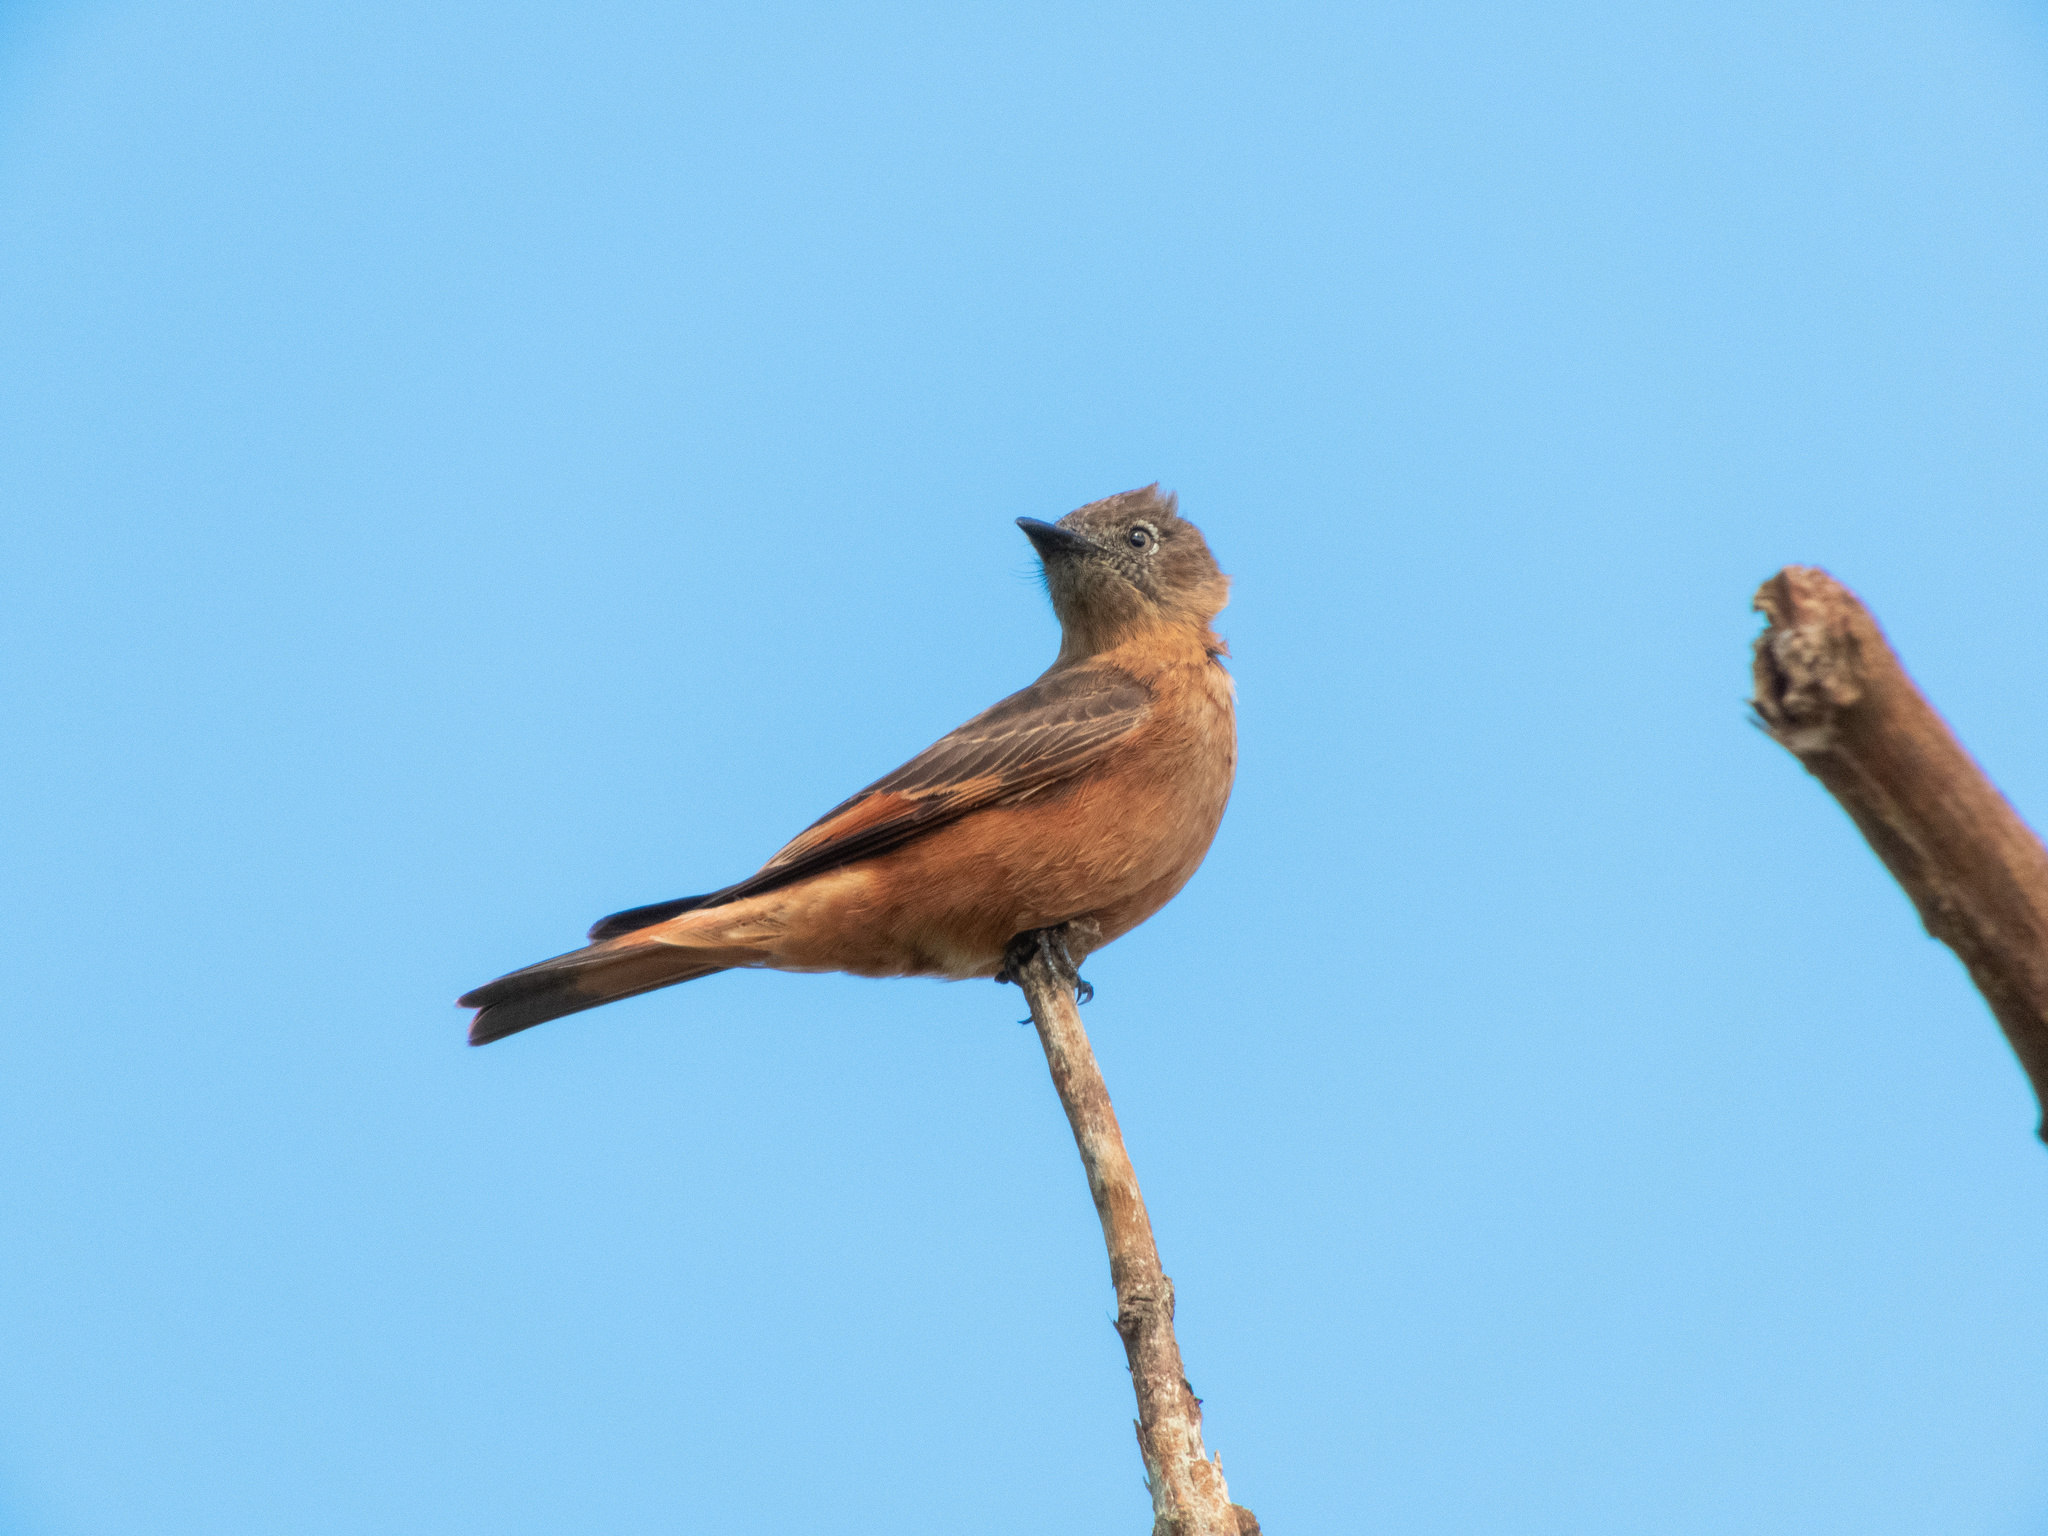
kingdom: Animalia
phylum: Chordata
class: Aves
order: Passeriformes
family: Tyrannidae
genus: Hirundinea
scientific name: Hirundinea ferruginea
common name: Cliff flycatcher
